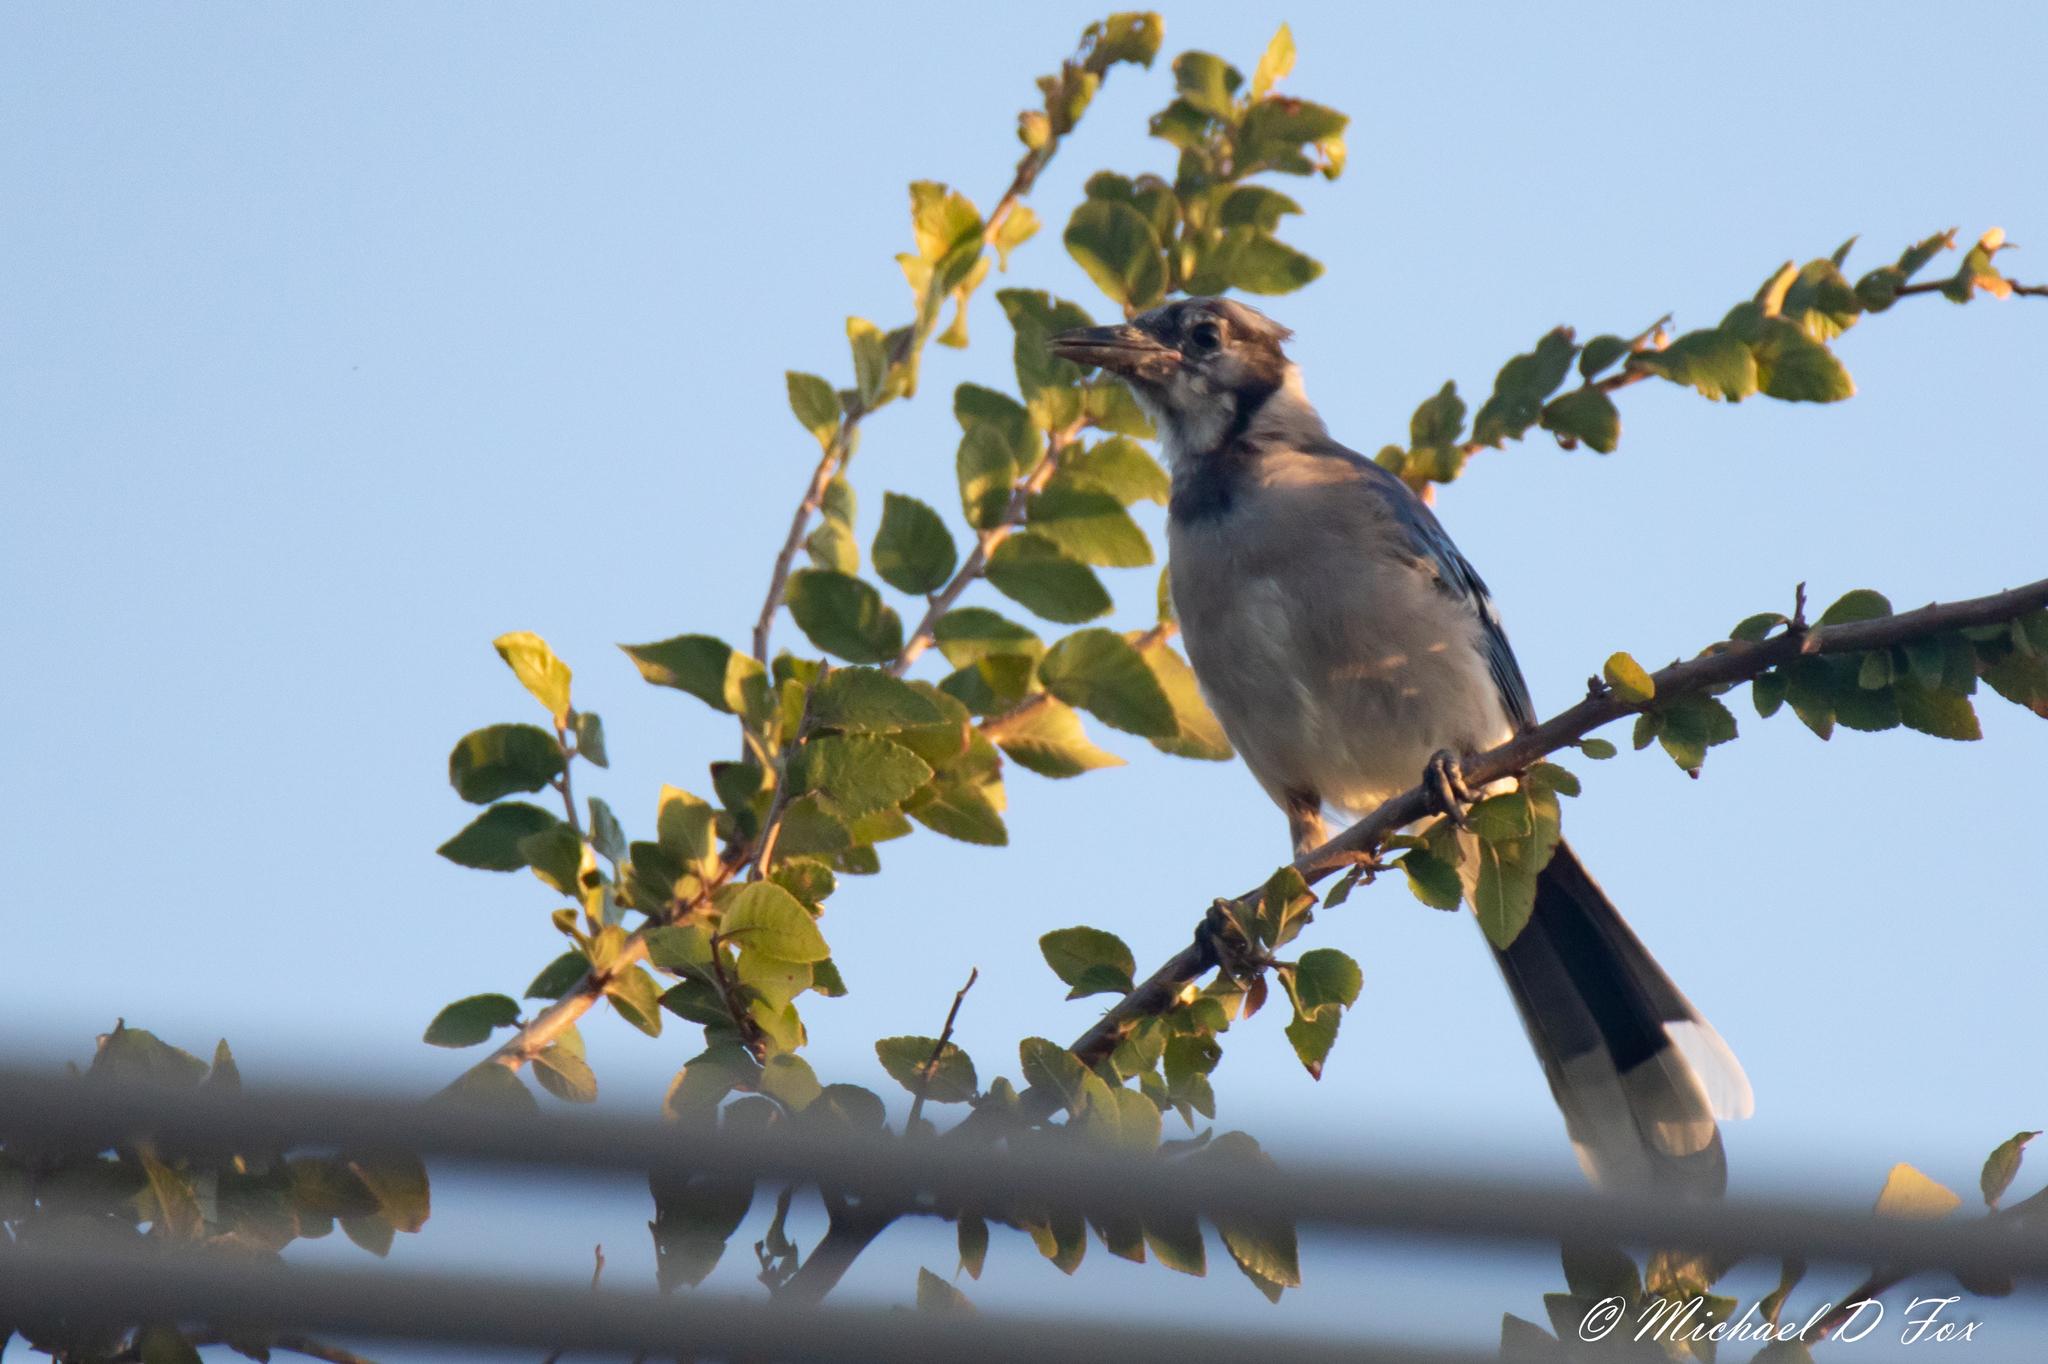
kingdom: Animalia
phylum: Chordata
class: Aves
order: Passeriformes
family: Corvidae
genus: Cyanocitta
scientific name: Cyanocitta cristata
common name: Blue jay
